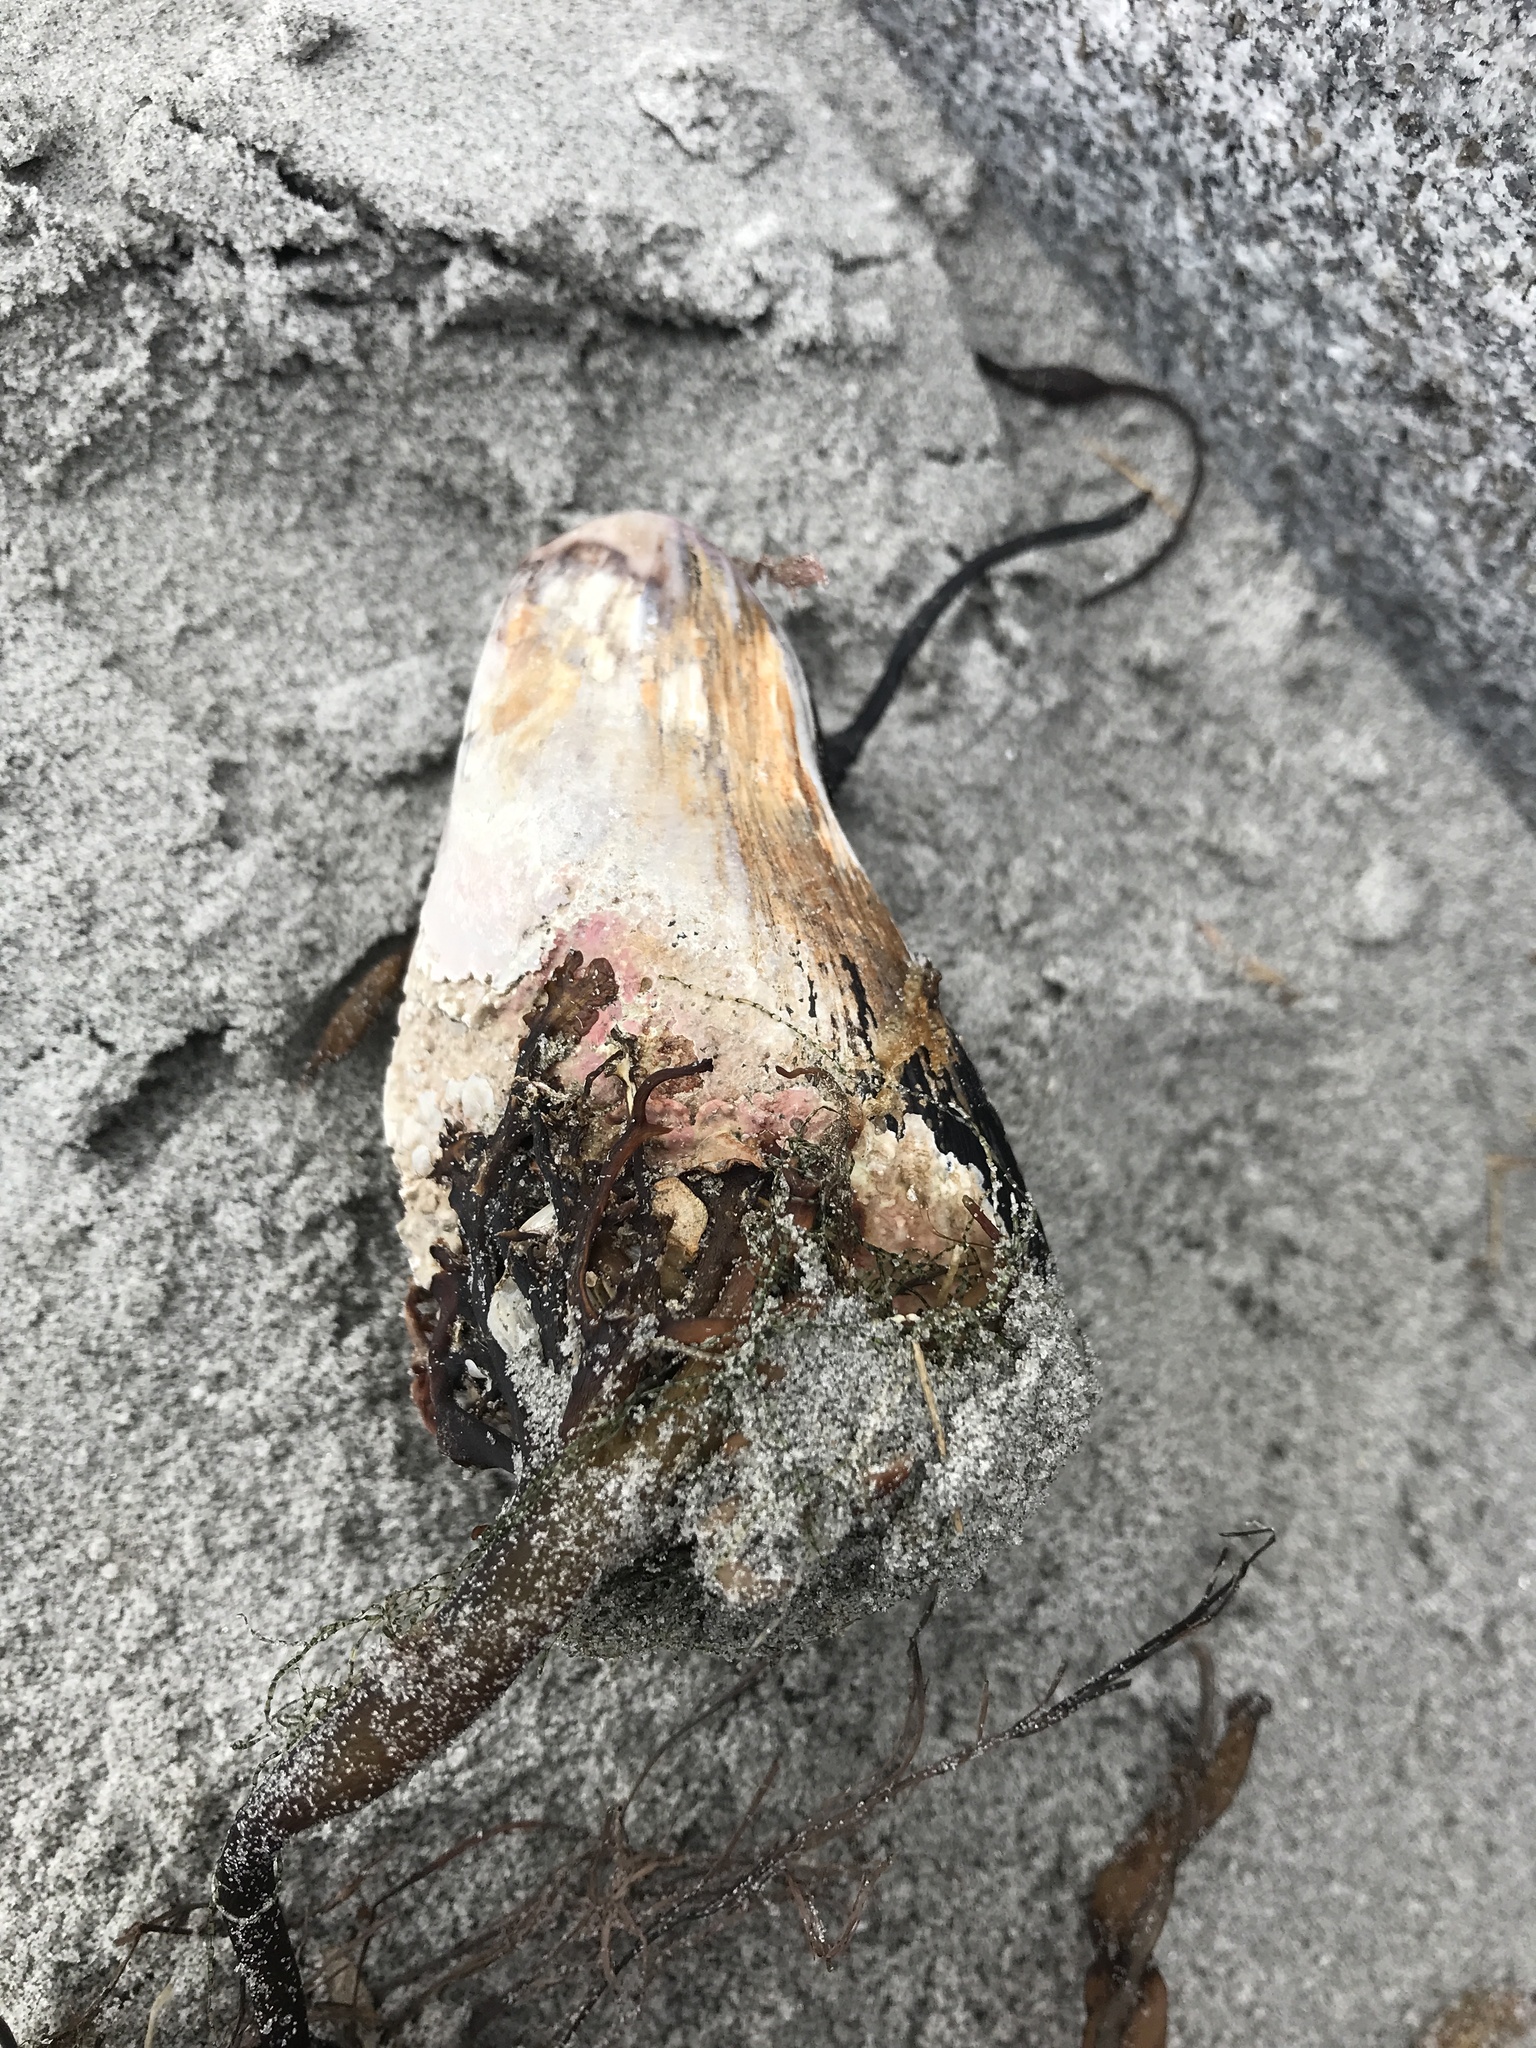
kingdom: Animalia
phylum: Mollusca
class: Bivalvia
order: Mytilida
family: Mytilidae
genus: Modiolus
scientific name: Modiolus modiolus
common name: Horse-mussel
